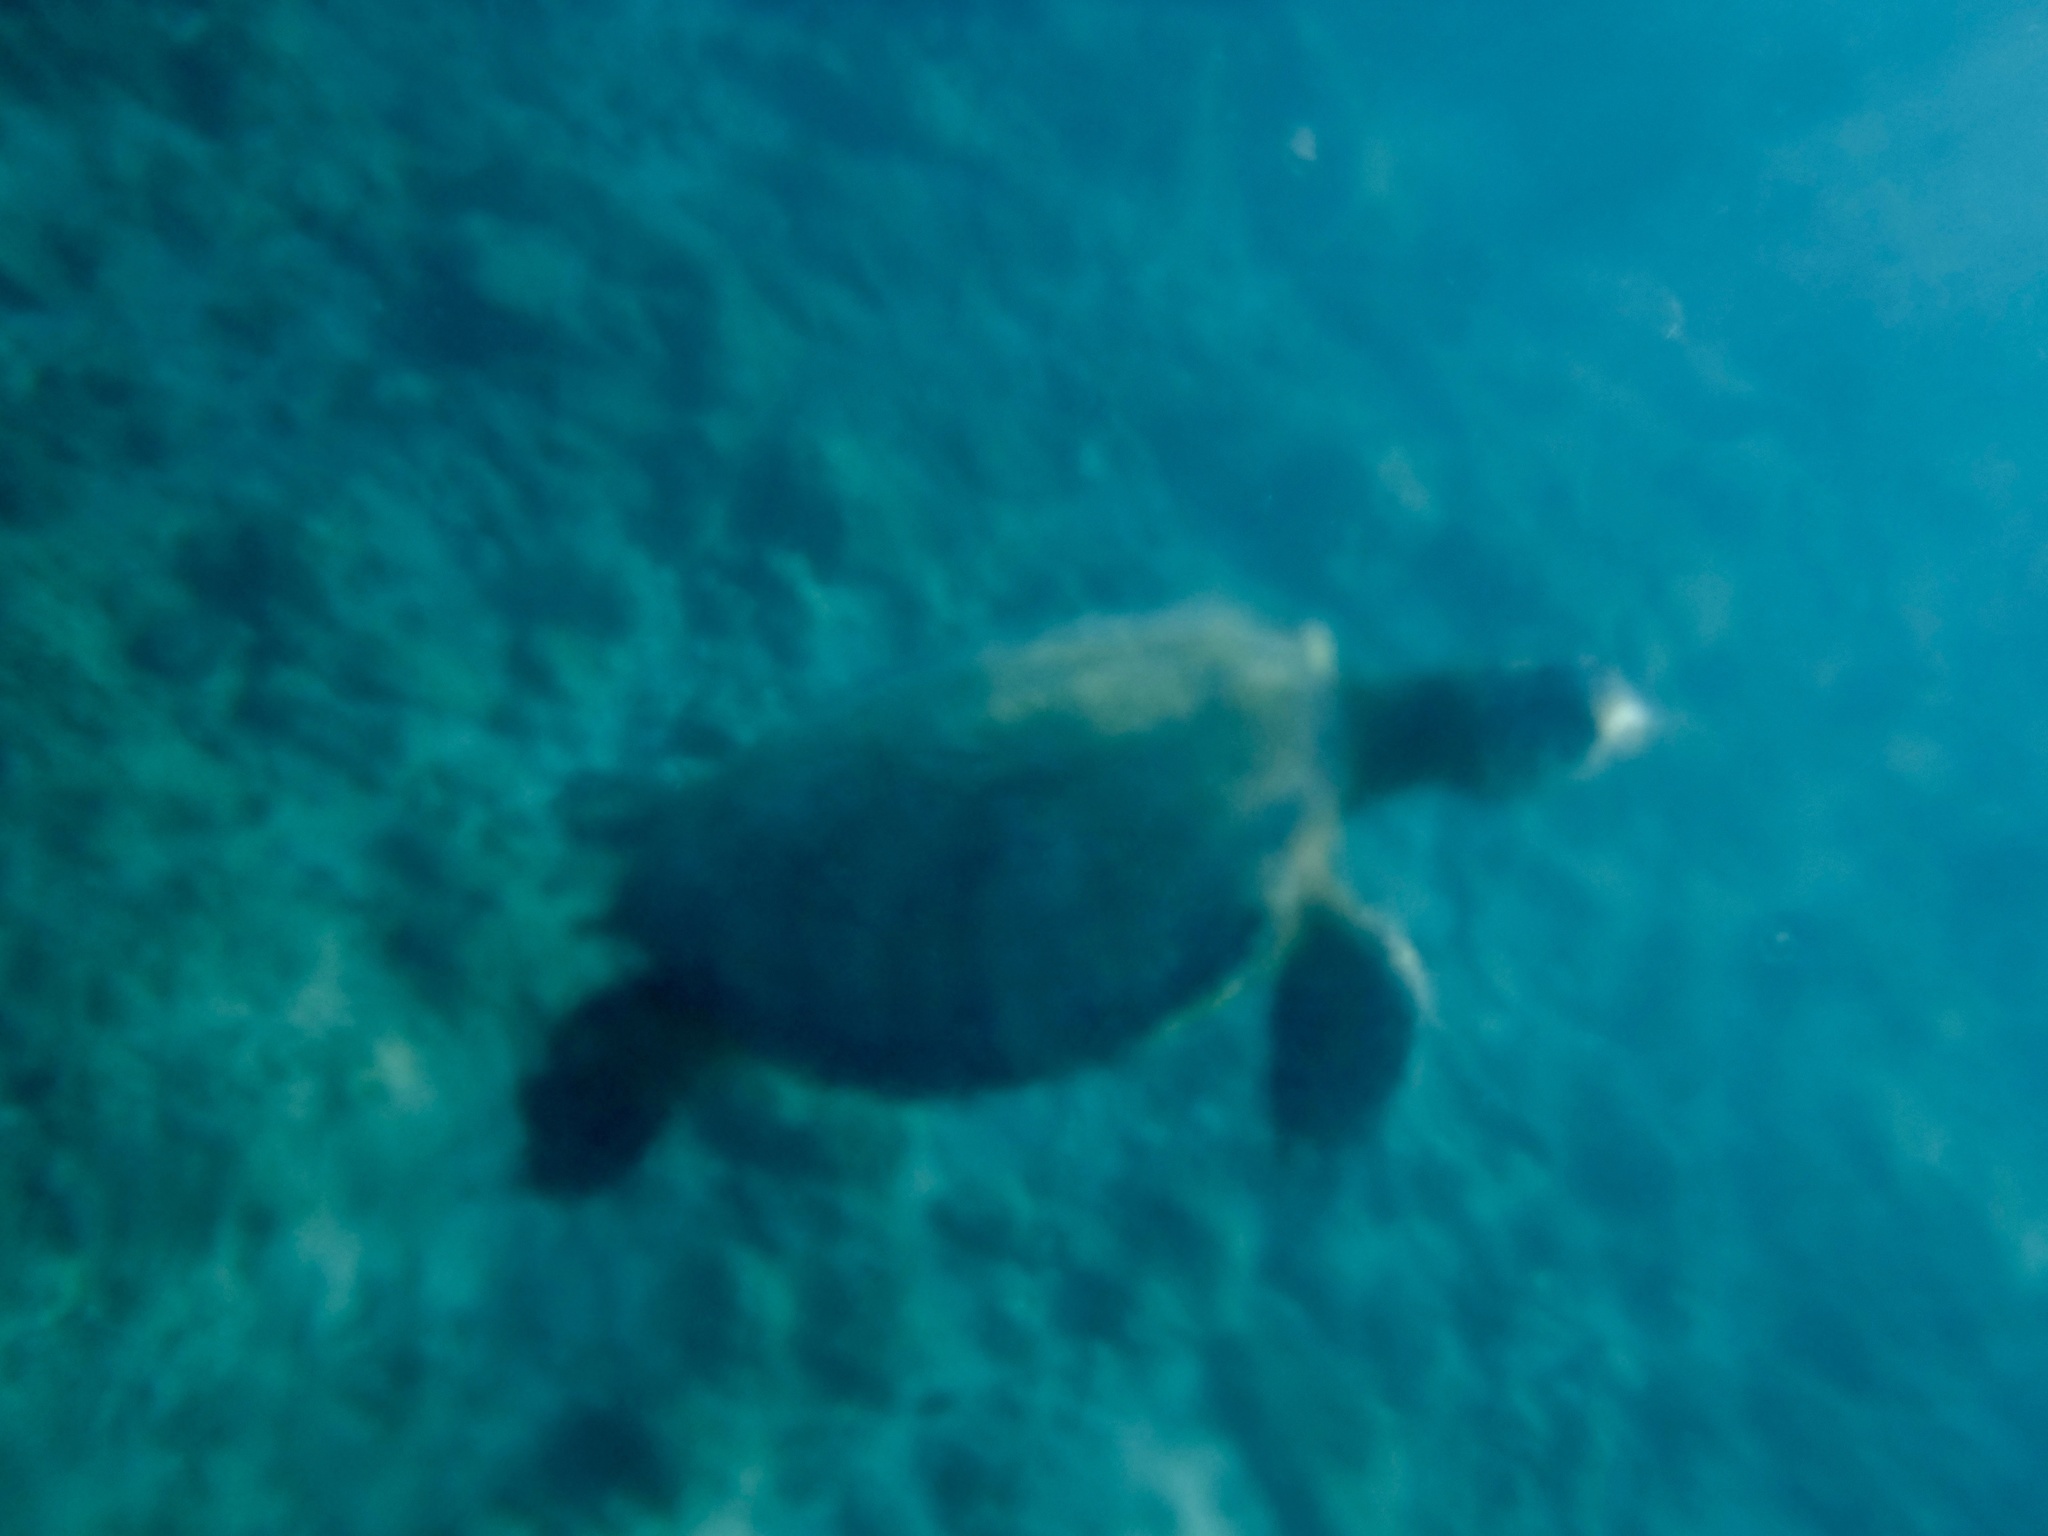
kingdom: Animalia
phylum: Chordata
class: Testudines
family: Cheloniidae
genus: Chelonia
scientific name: Chelonia mydas
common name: Green turtle
